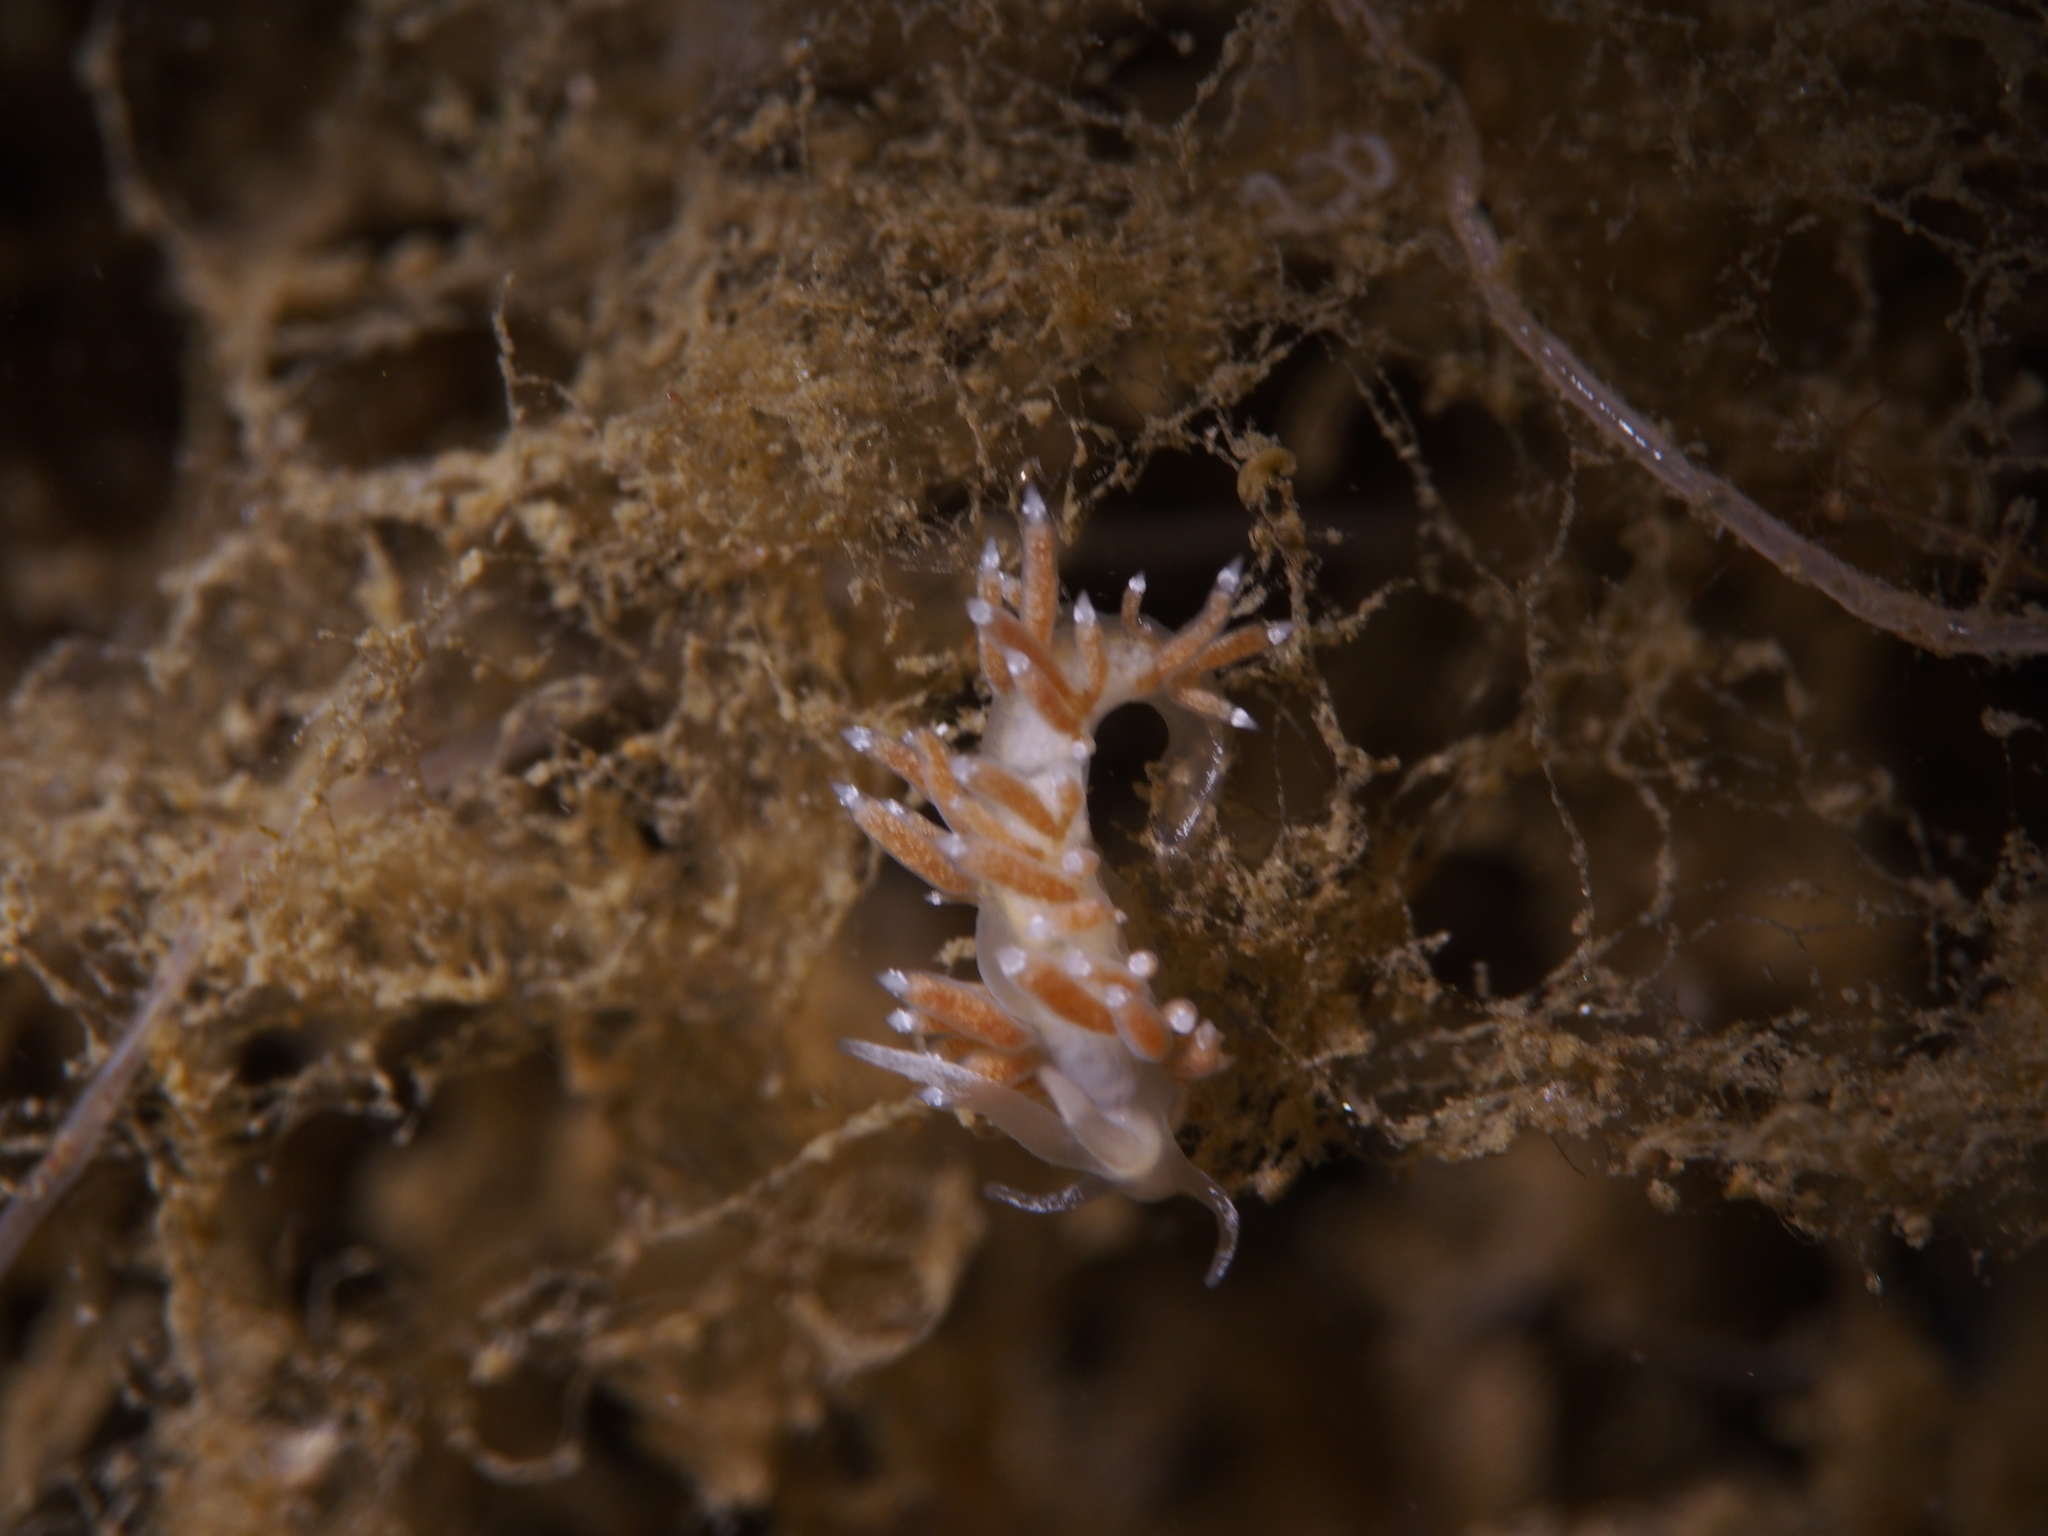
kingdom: Animalia
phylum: Mollusca
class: Gastropoda
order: Nudibranchia
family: Coryphellidae
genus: Coryphella
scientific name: Coryphella gracilis
